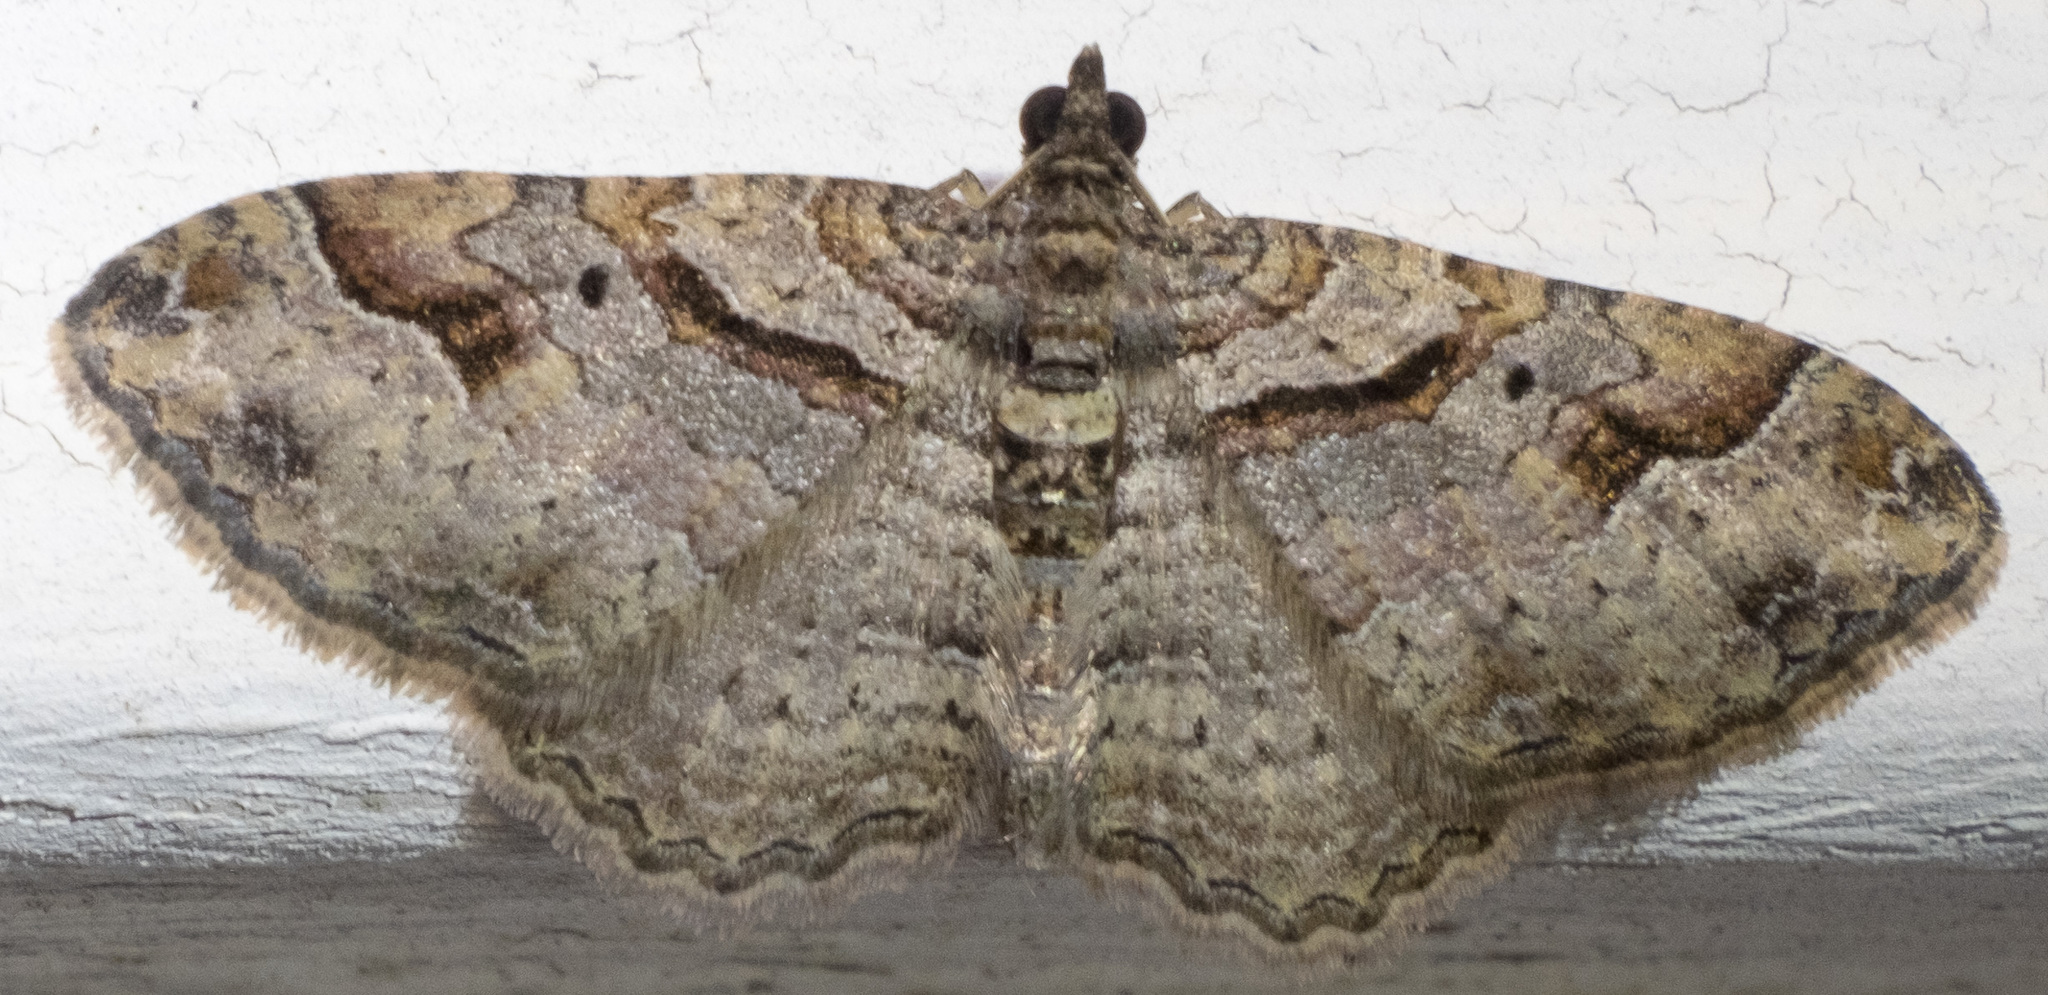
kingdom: Animalia
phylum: Arthropoda
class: Insecta
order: Lepidoptera
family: Geometridae
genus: Costaconvexa
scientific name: Costaconvexa centrostrigaria
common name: Bent-line carpet
